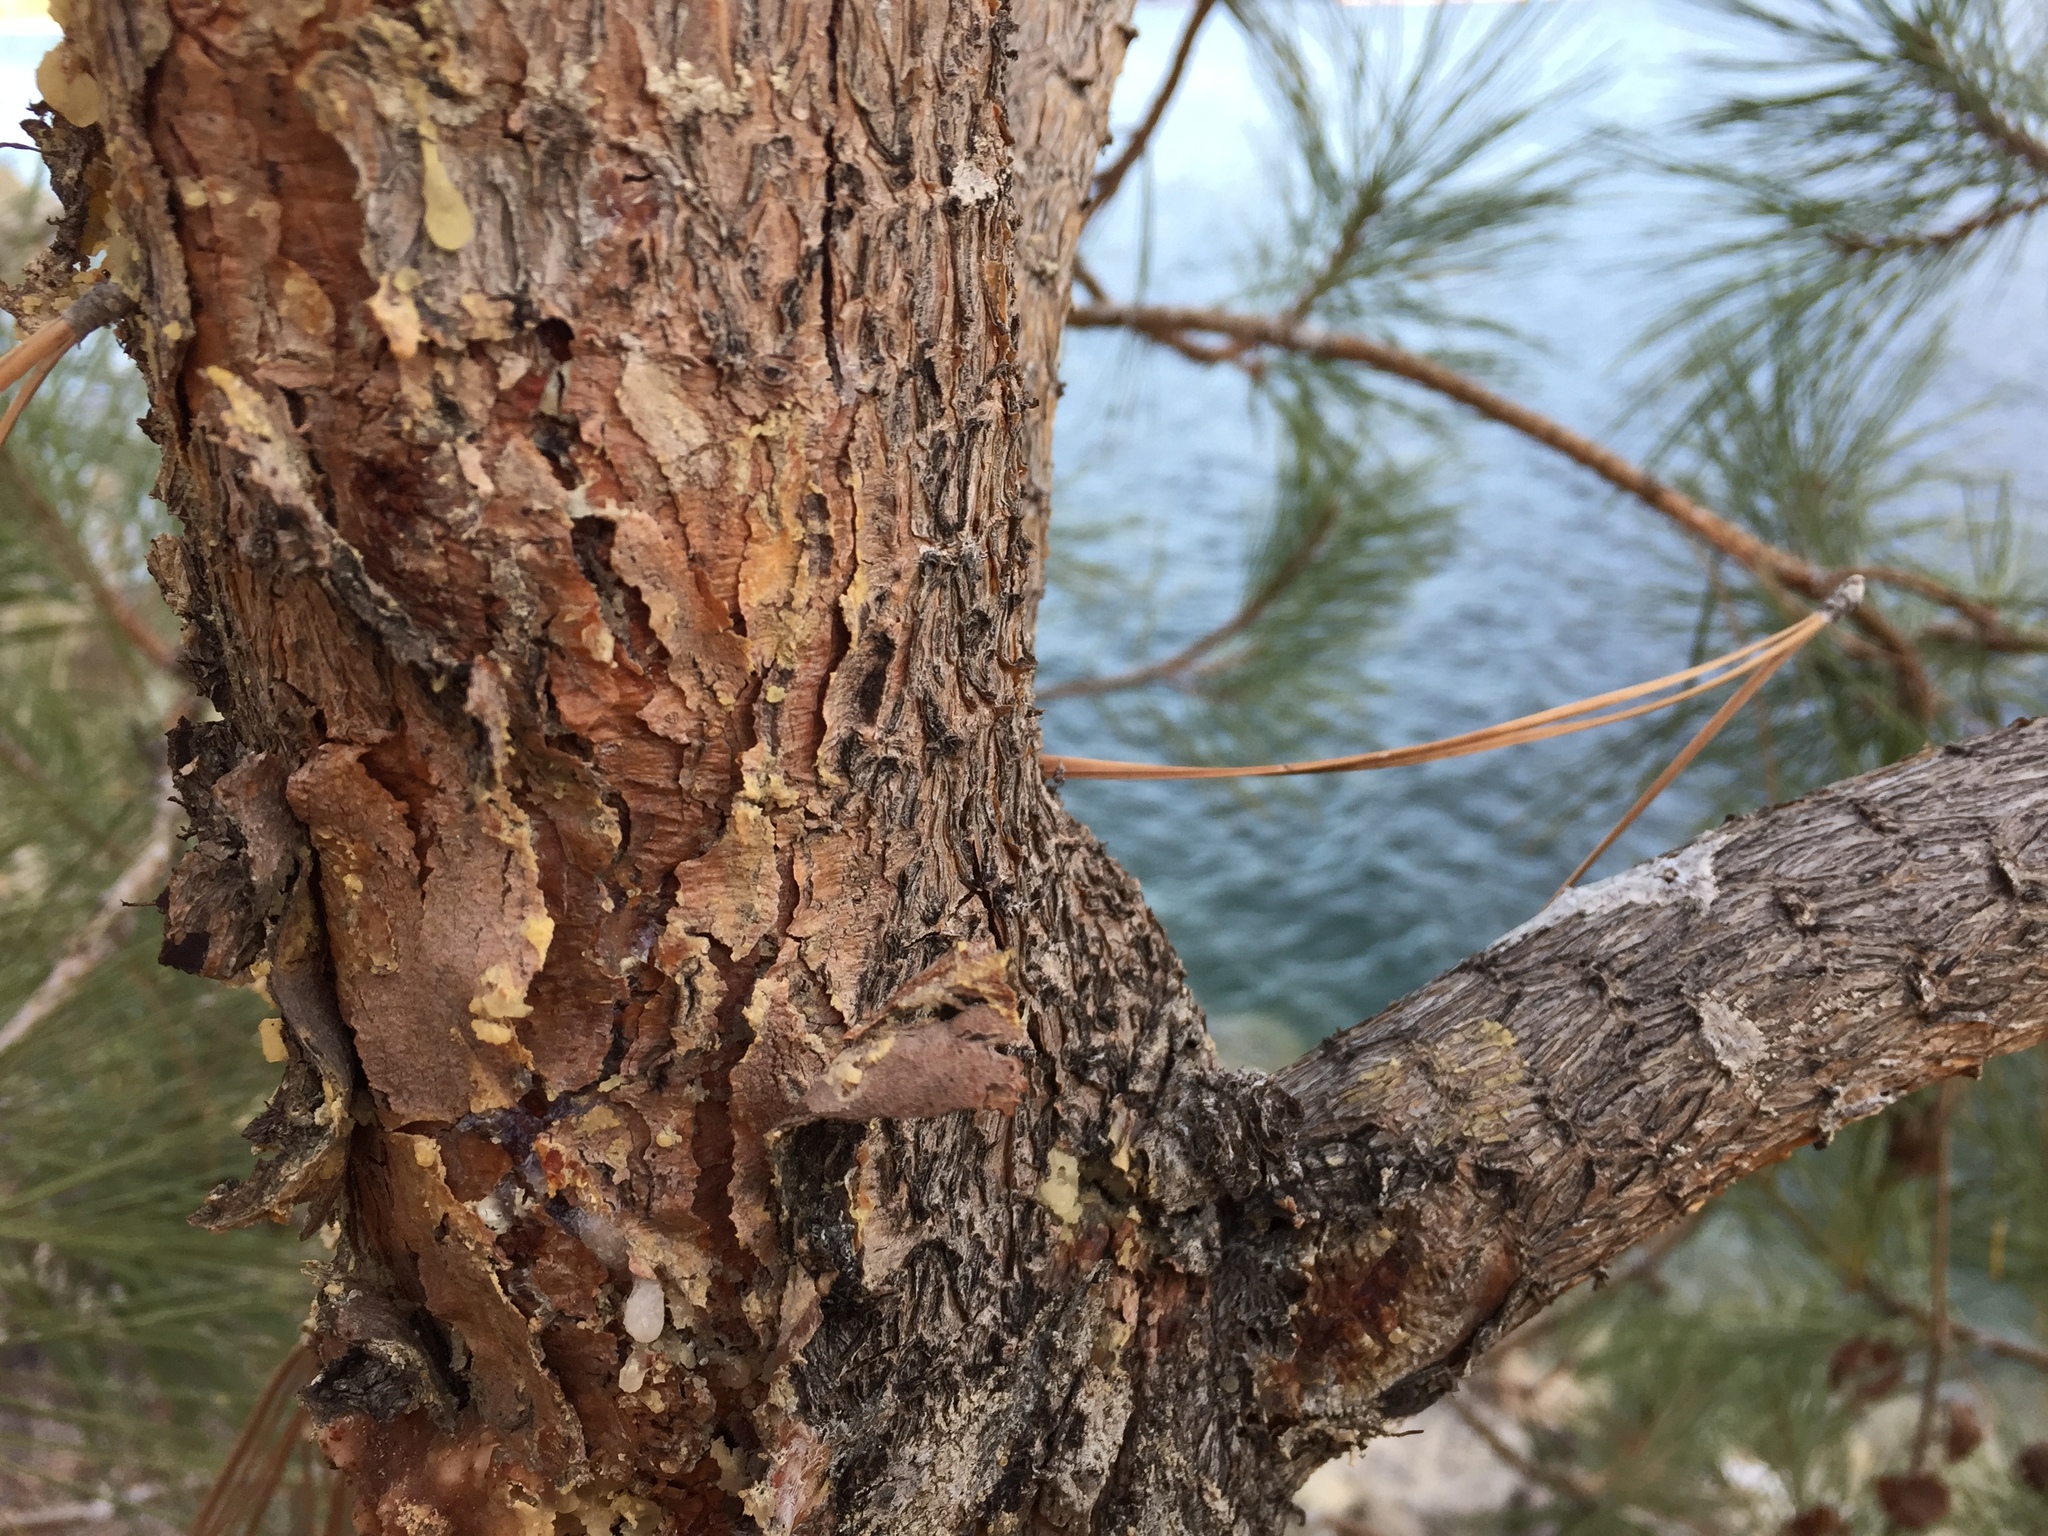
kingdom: Plantae
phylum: Tracheophyta
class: Pinopsida
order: Pinales
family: Pinaceae
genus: Pinus
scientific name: Pinus ponderosa
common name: Western yellow-pine
